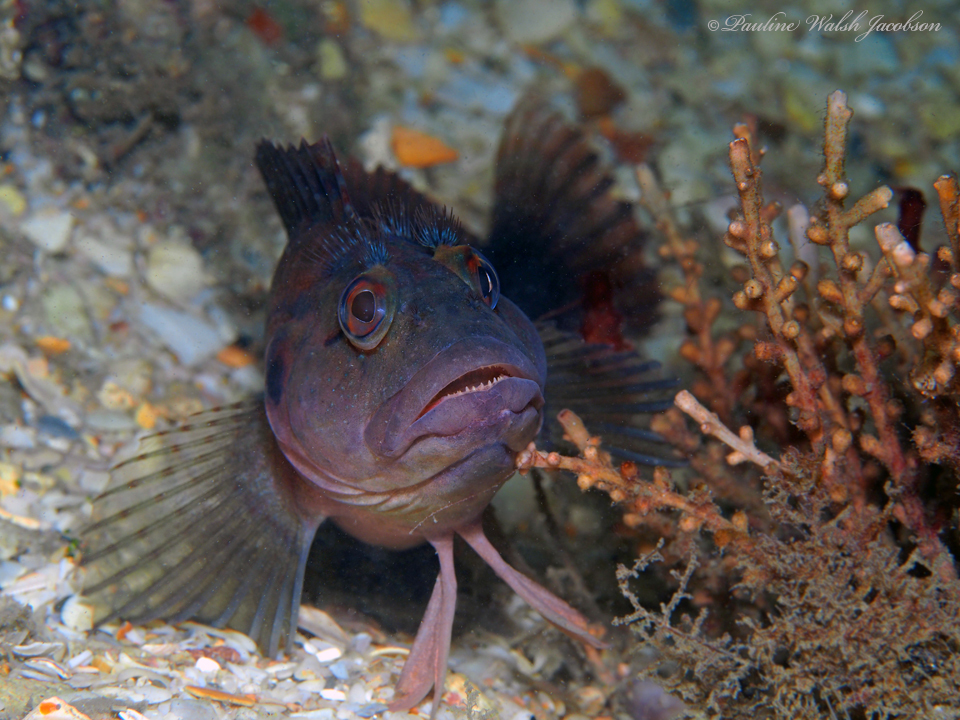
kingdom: Animalia
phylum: Chordata
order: Perciformes
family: Labrisomidae
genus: Labrisomus
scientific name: Labrisomus conditus
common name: Masquerader hairy blenny
